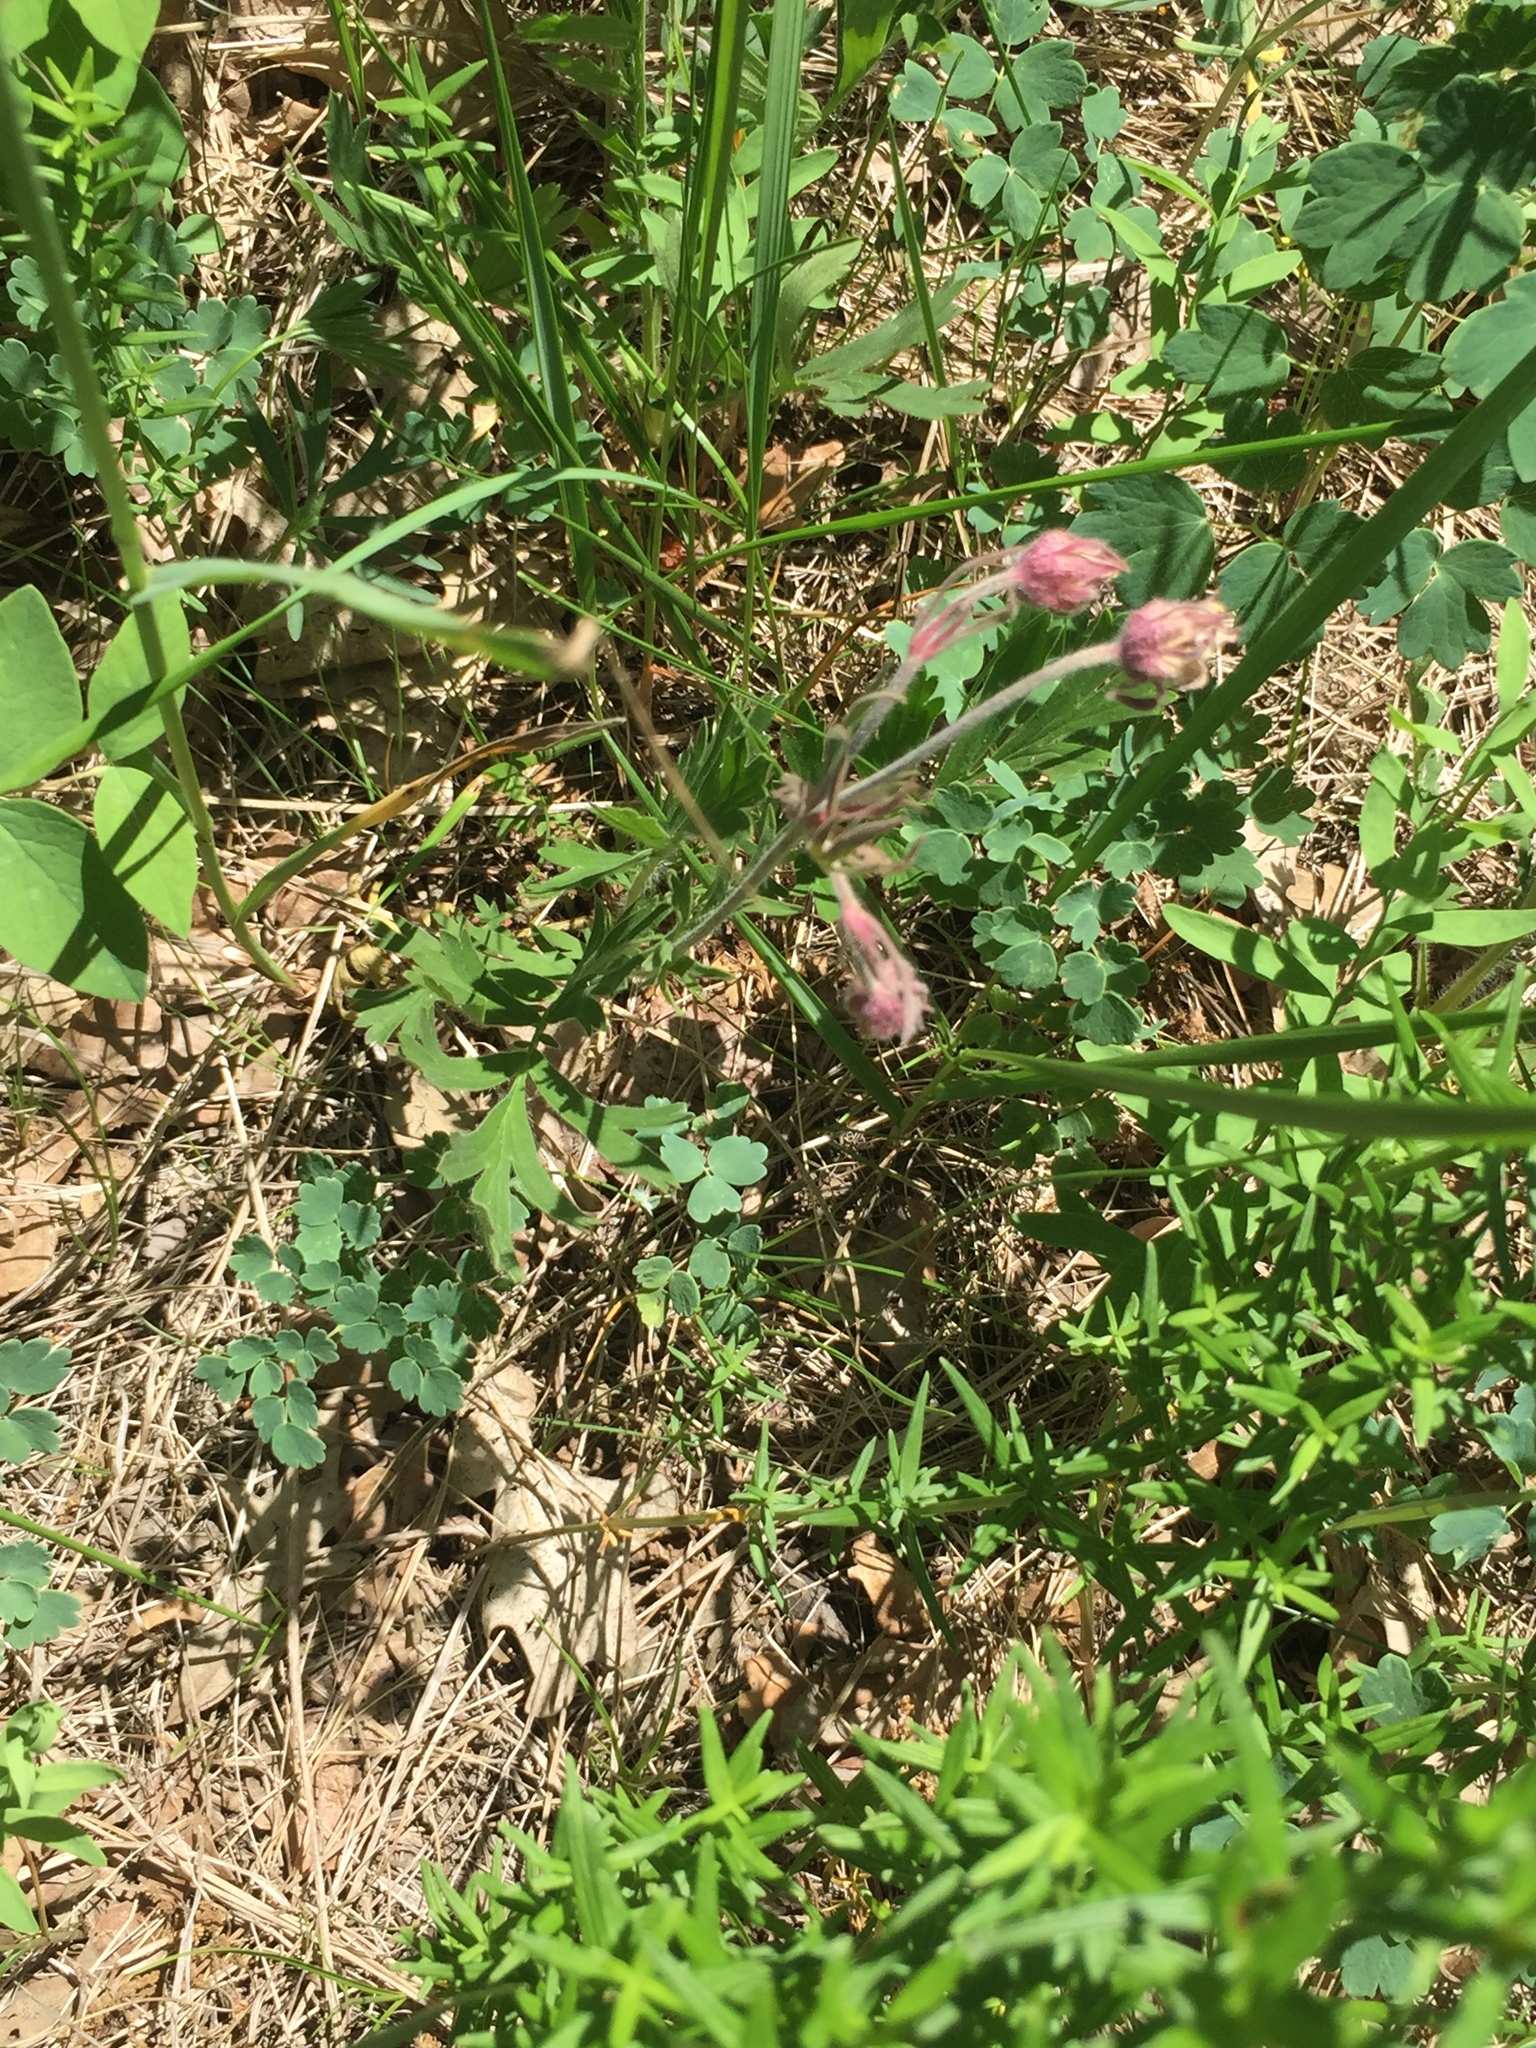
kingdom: Plantae
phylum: Tracheophyta
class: Magnoliopsida
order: Rosales
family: Rosaceae
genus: Geum
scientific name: Geum triflorum
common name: Old man's whiskers
